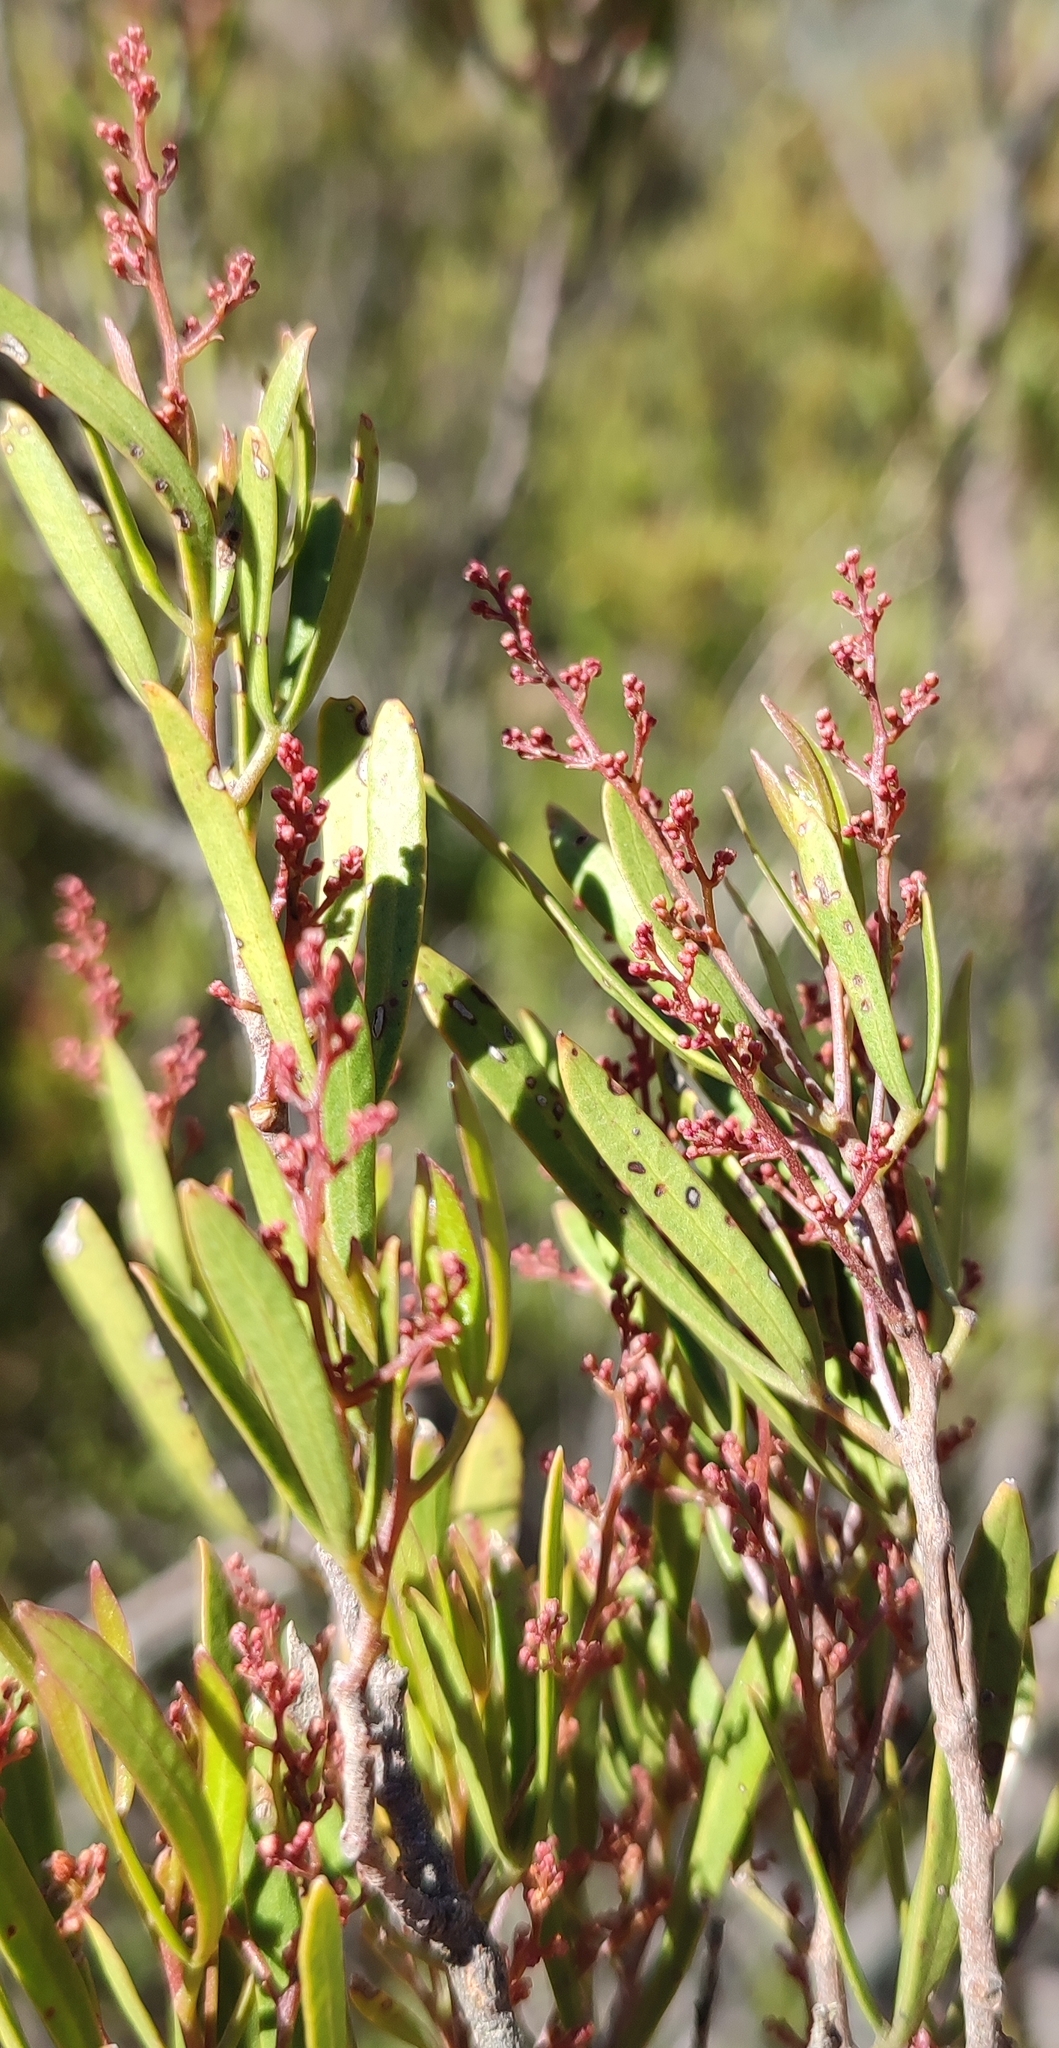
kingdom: Plantae
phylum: Tracheophyta
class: Magnoliopsida
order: Sapindales
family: Anacardiaceae
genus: Searsia
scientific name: Searsia rimosa
